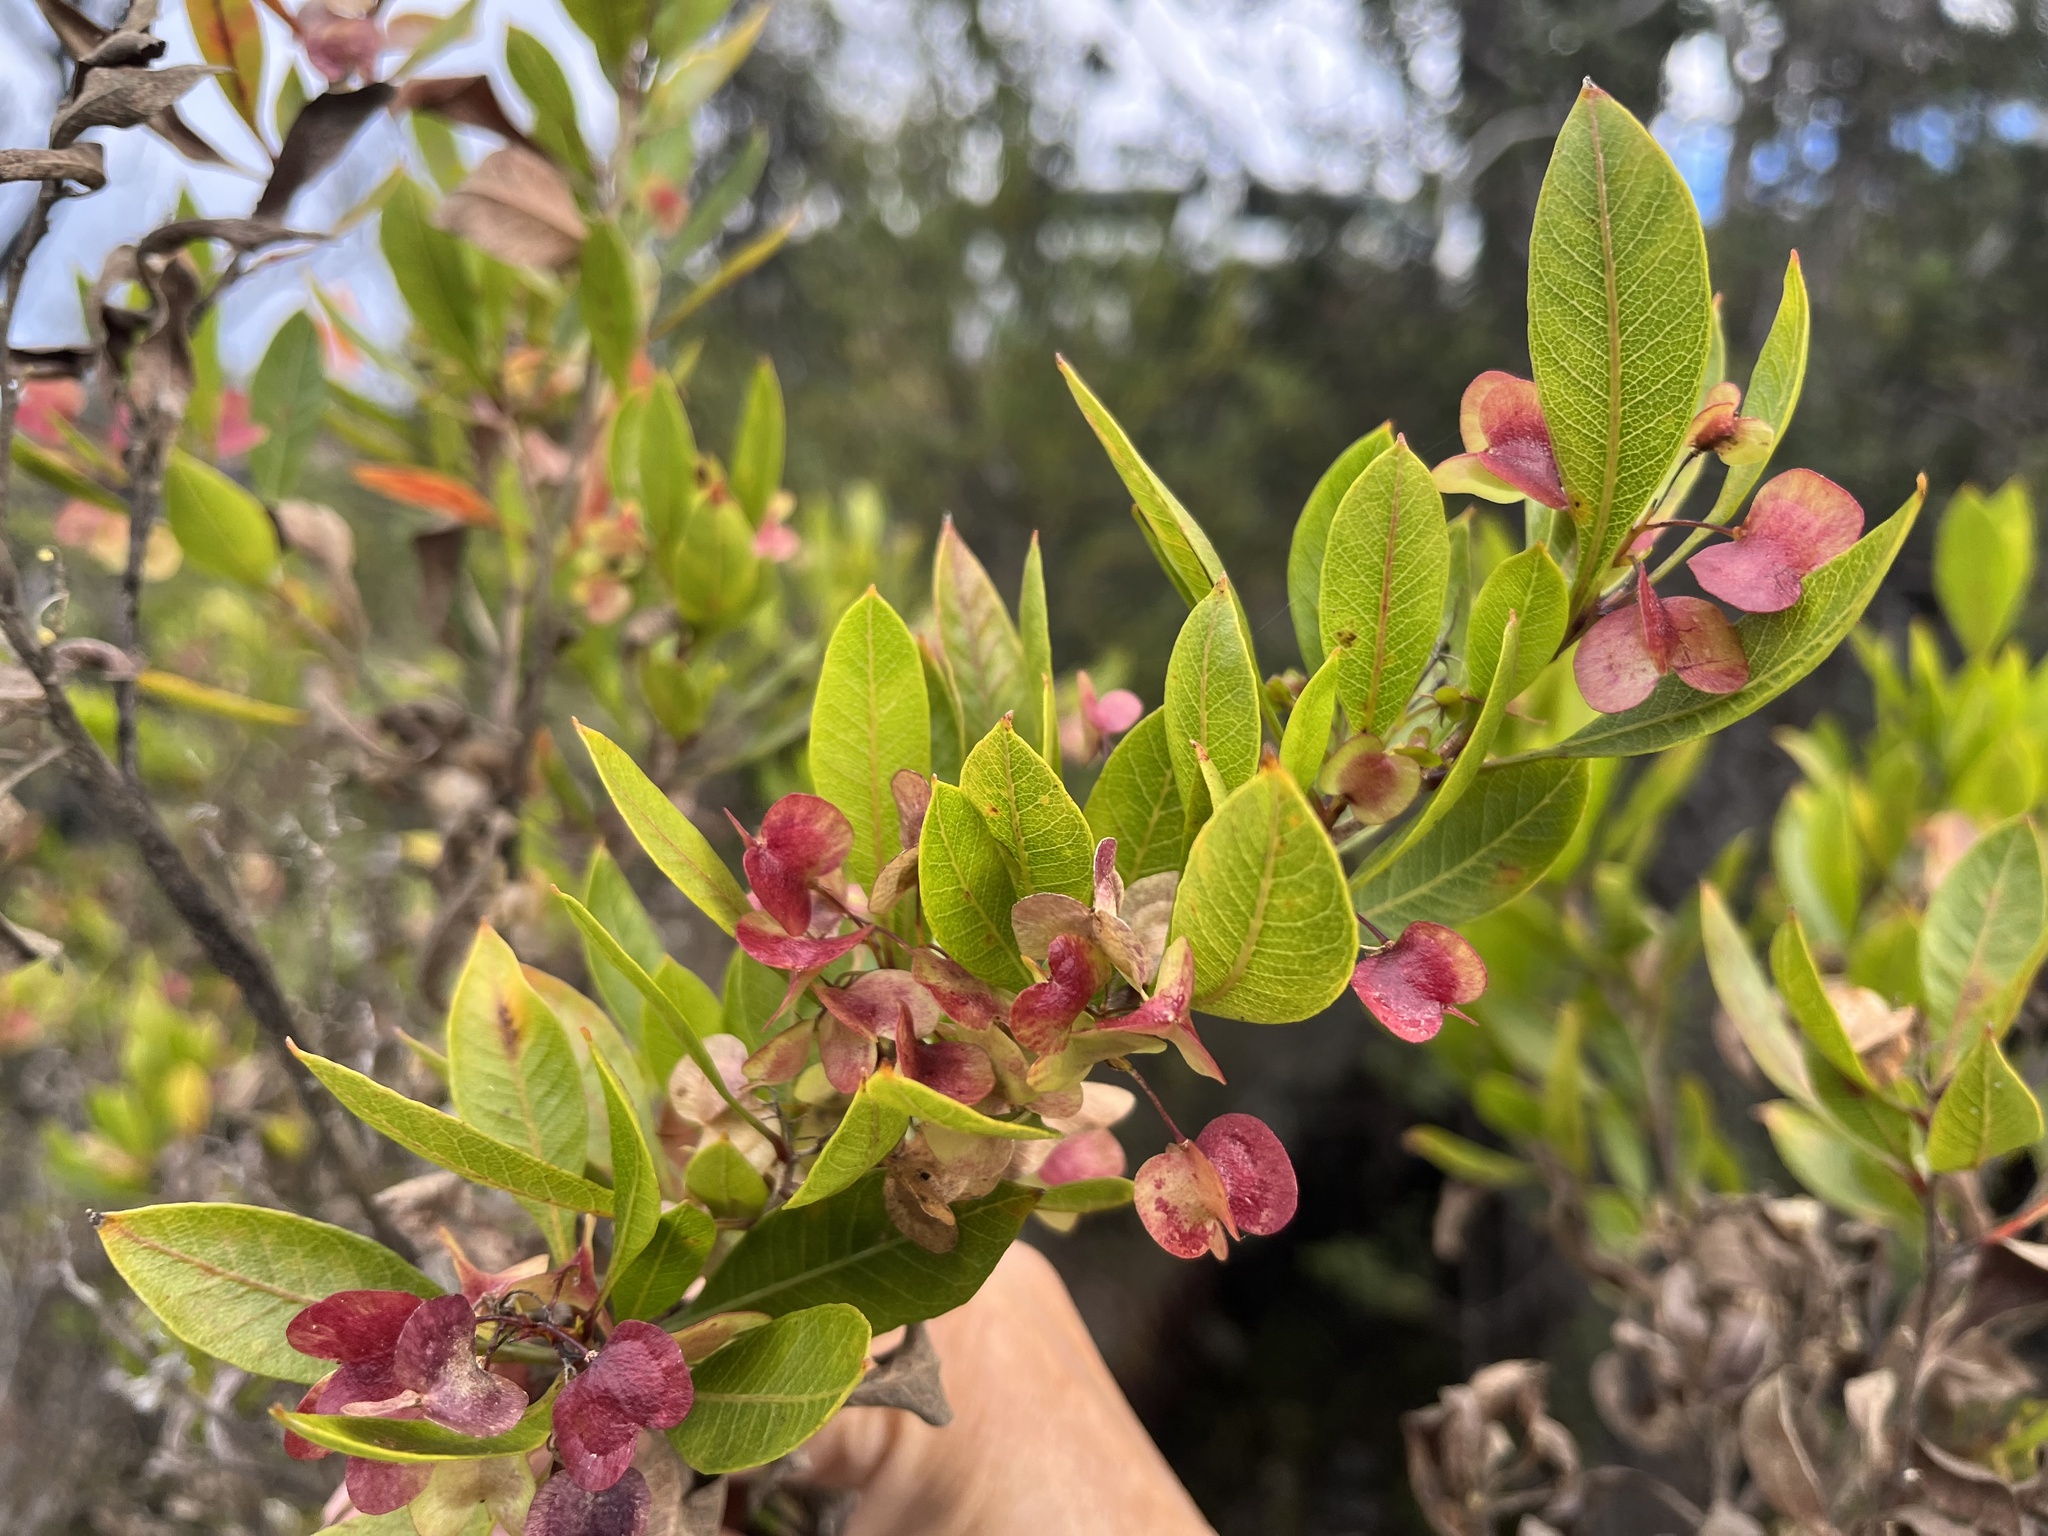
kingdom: Plantae
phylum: Tracheophyta
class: Magnoliopsida
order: Sapindales
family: Sapindaceae
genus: Dodonaea
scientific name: Dodonaea viscosa
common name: Hopbush
